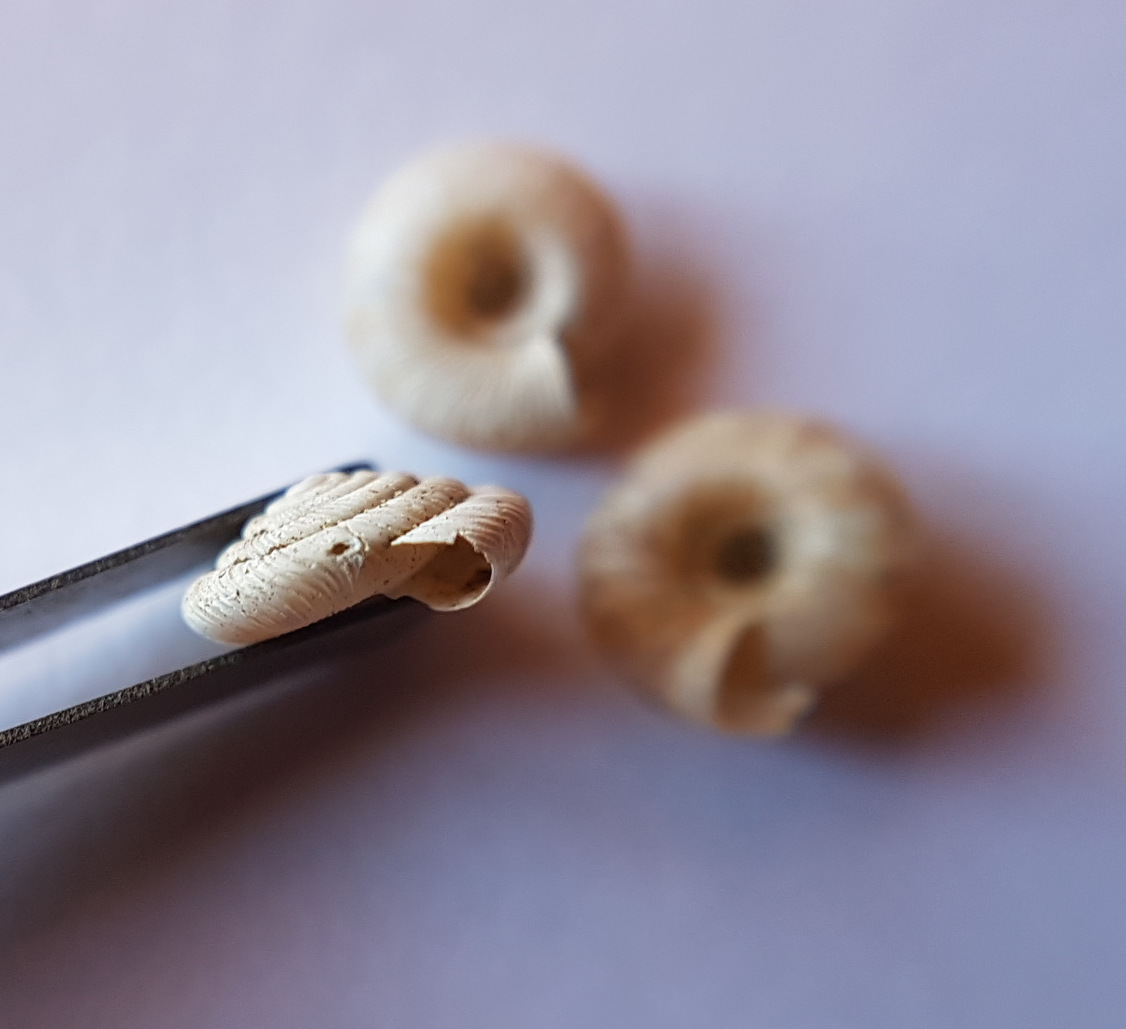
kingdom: Animalia
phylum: Mollusca
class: Gastropoda
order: Stylommatophora
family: Discidae
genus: Discus
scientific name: Discus rotundatus
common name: Rounded snail
